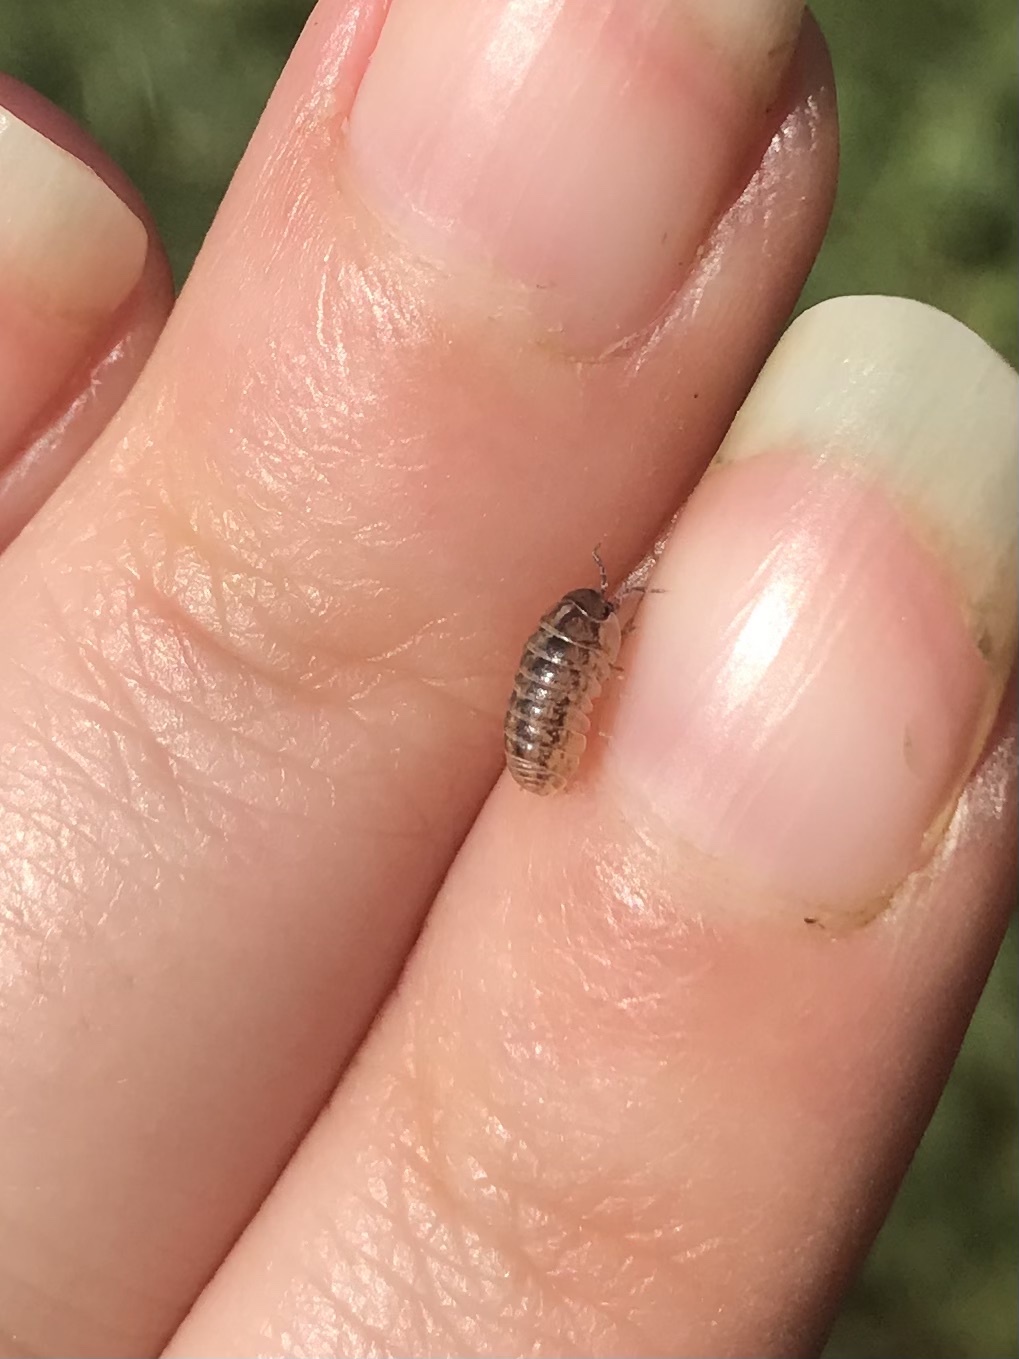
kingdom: Animalia
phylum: Arthropoda
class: Malacostraca
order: Isopoda
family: Armadillidiidae
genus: Armadillidium
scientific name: Armadillidium nasatum
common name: Isopod
